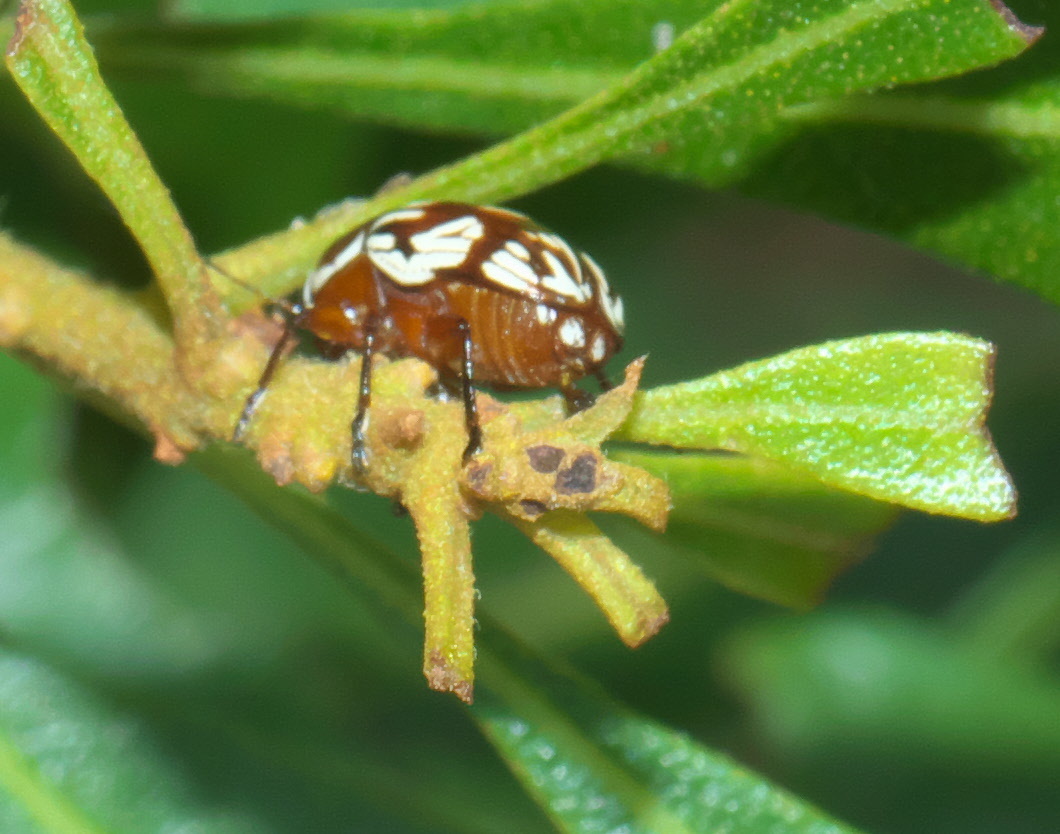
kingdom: Animalia
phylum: Arthropoda
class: Insecta
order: Coleoptera
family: Chrysomelidae
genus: Bassareus
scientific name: Bassareus brunnipes
